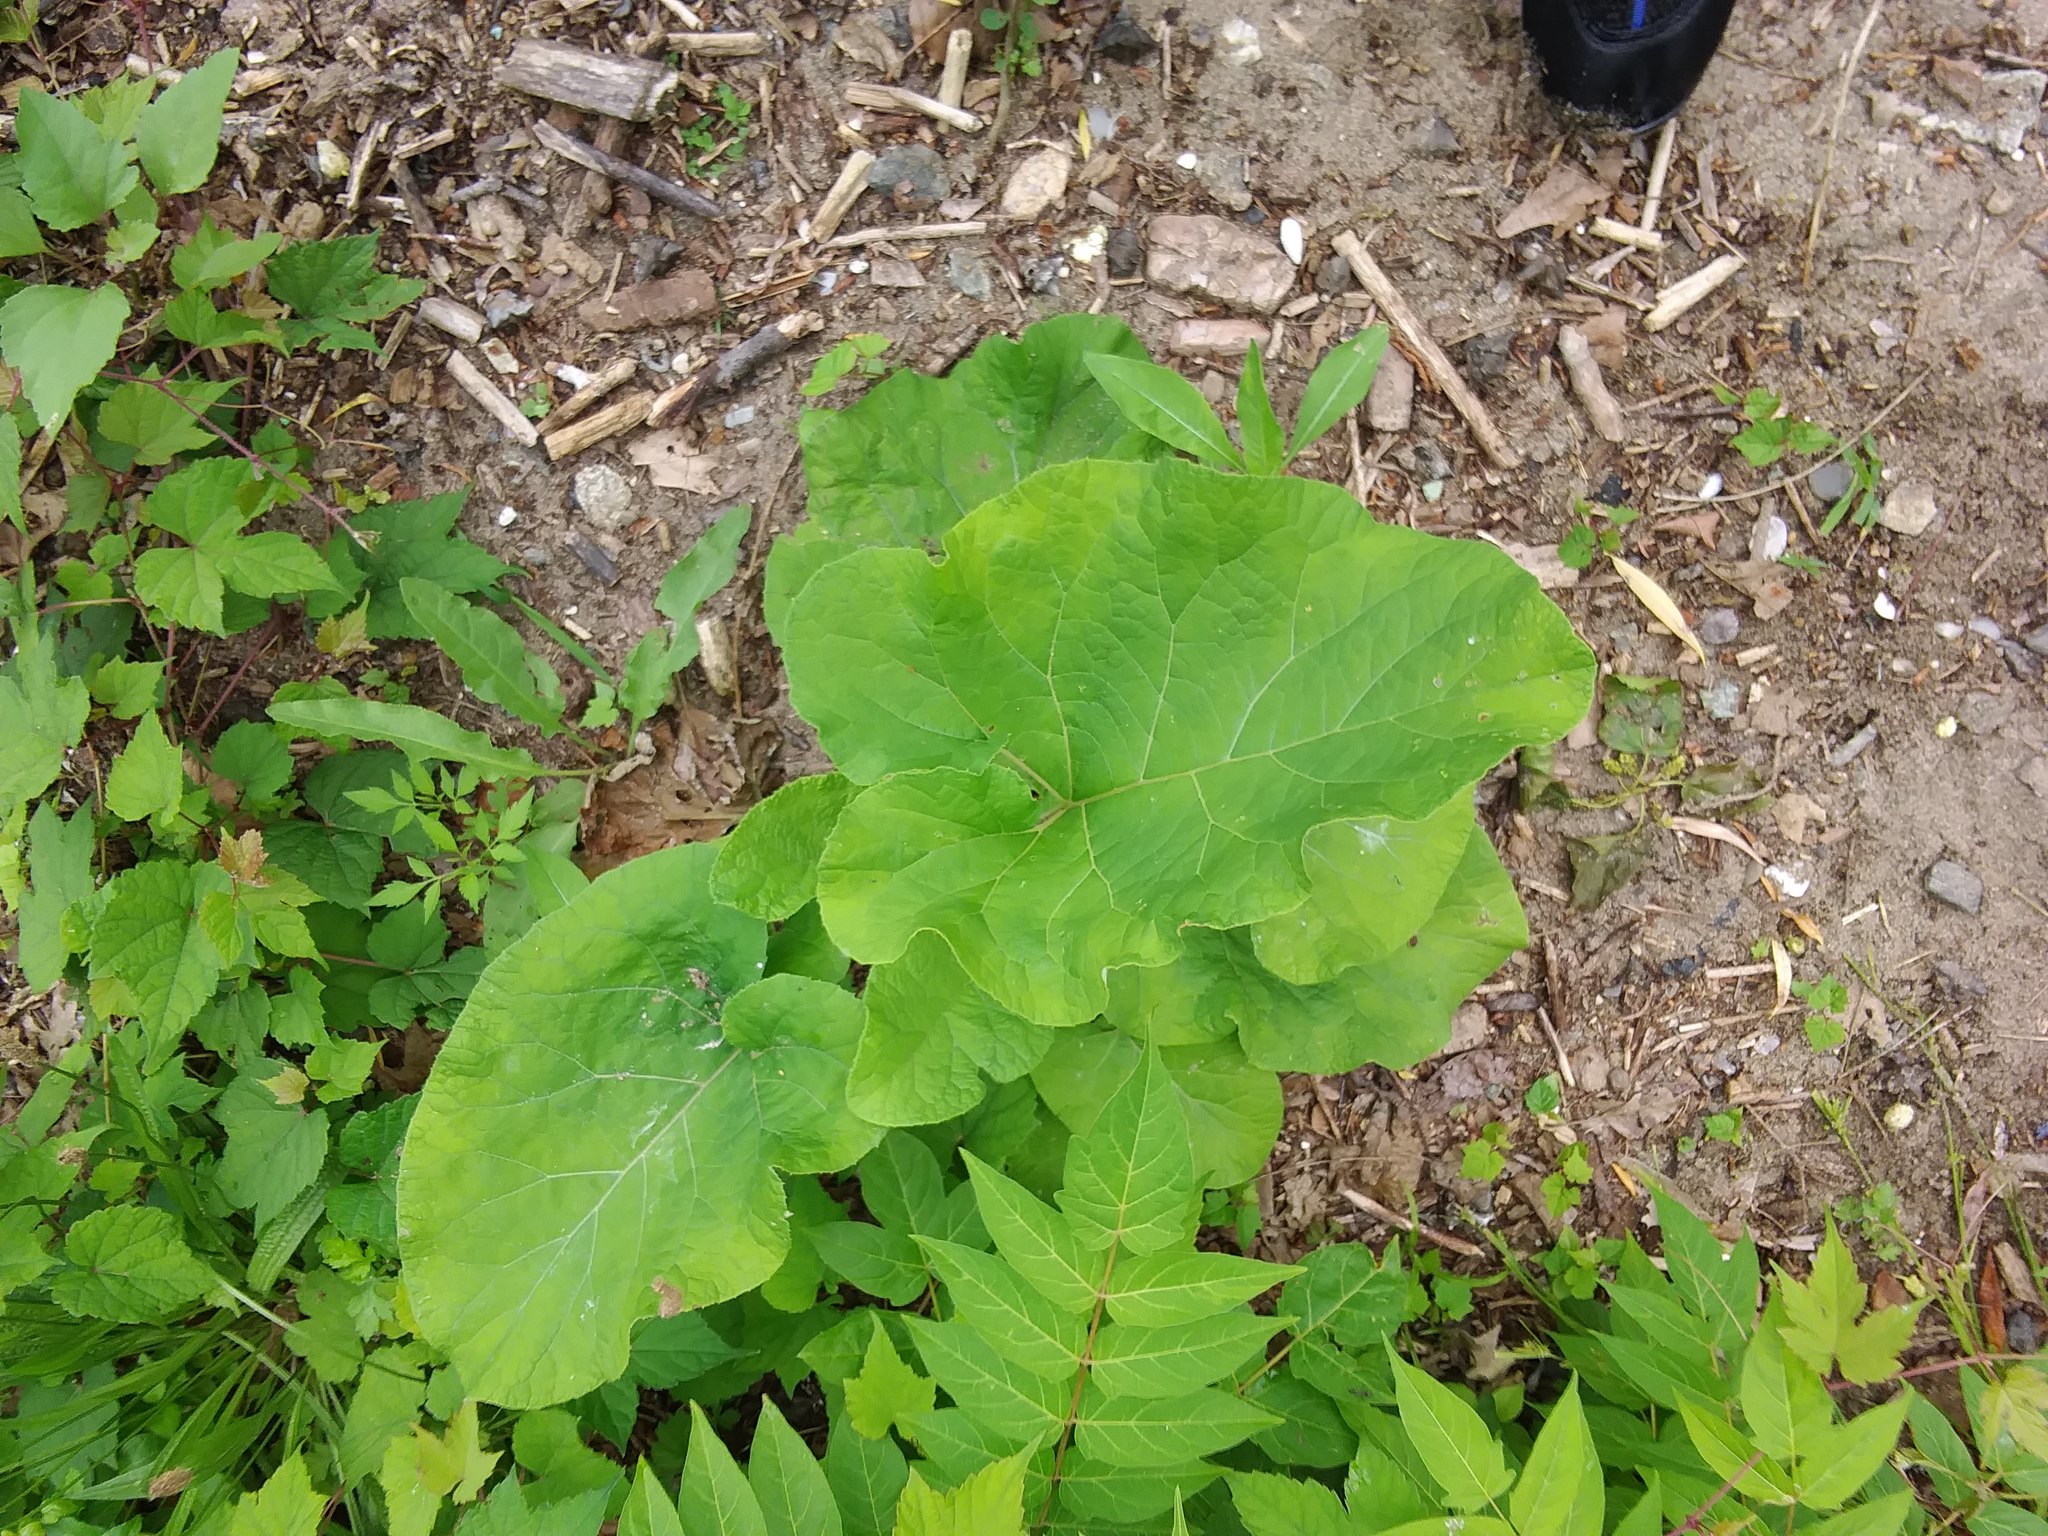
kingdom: Plantae
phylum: Tracheophyta
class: Magnoliopsida
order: Asterales
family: Asteraceae
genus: Arctium
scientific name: Arctium
